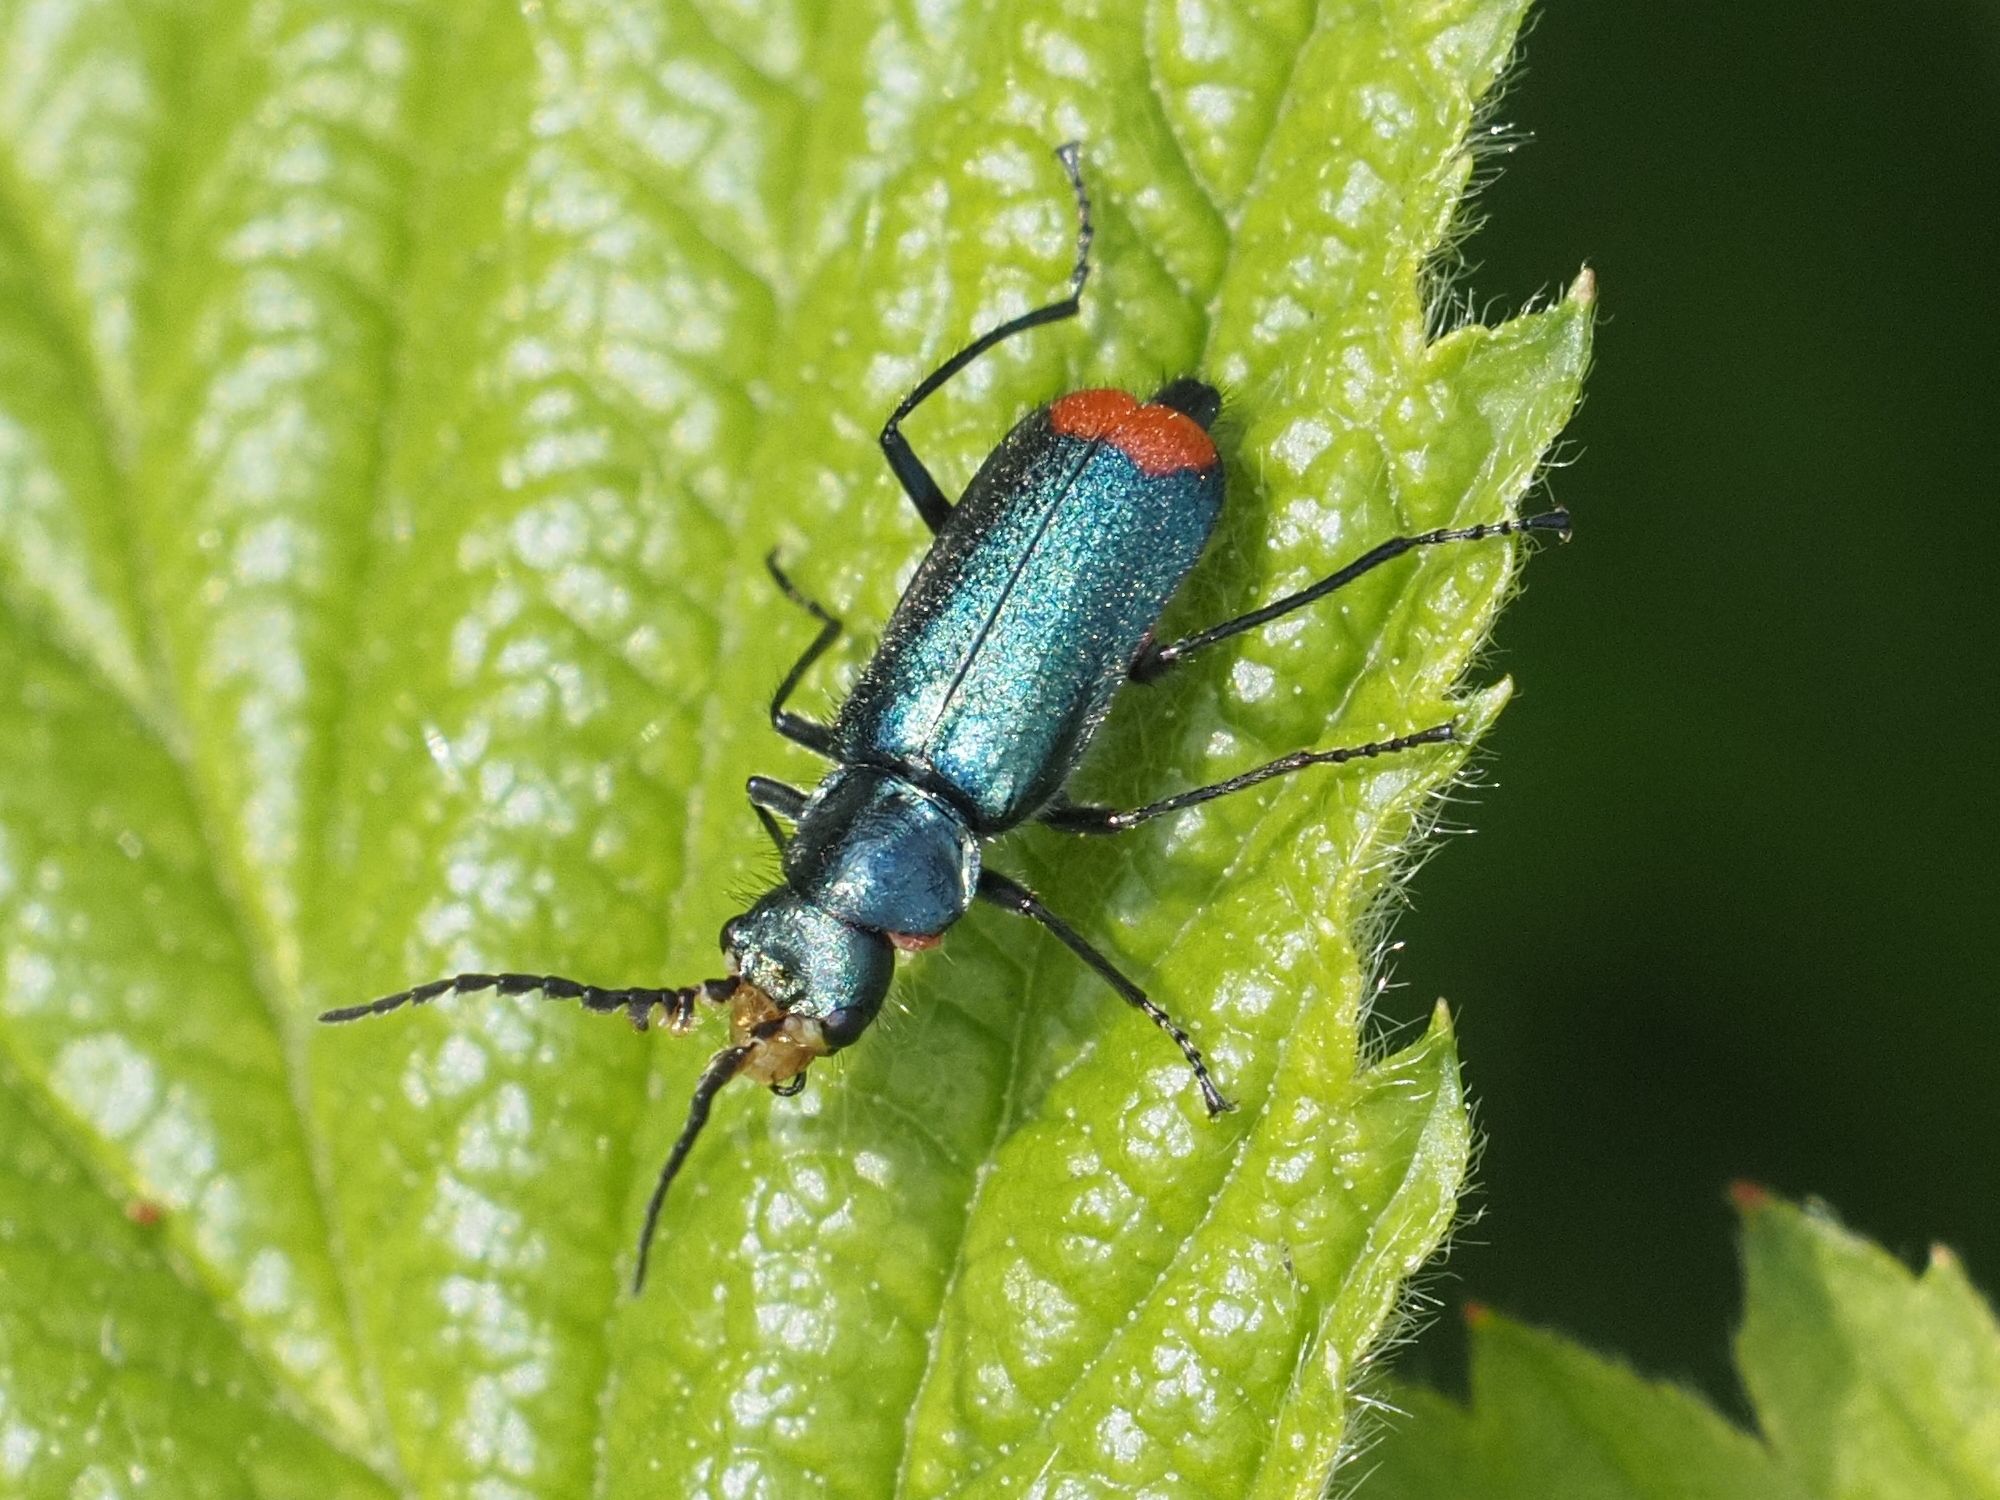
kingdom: Animalia
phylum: Arthropoda
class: Insecta
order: Coleoptera
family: Melyridae
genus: Malachius
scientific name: Malachius bipustulatus
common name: Malachite beetle
